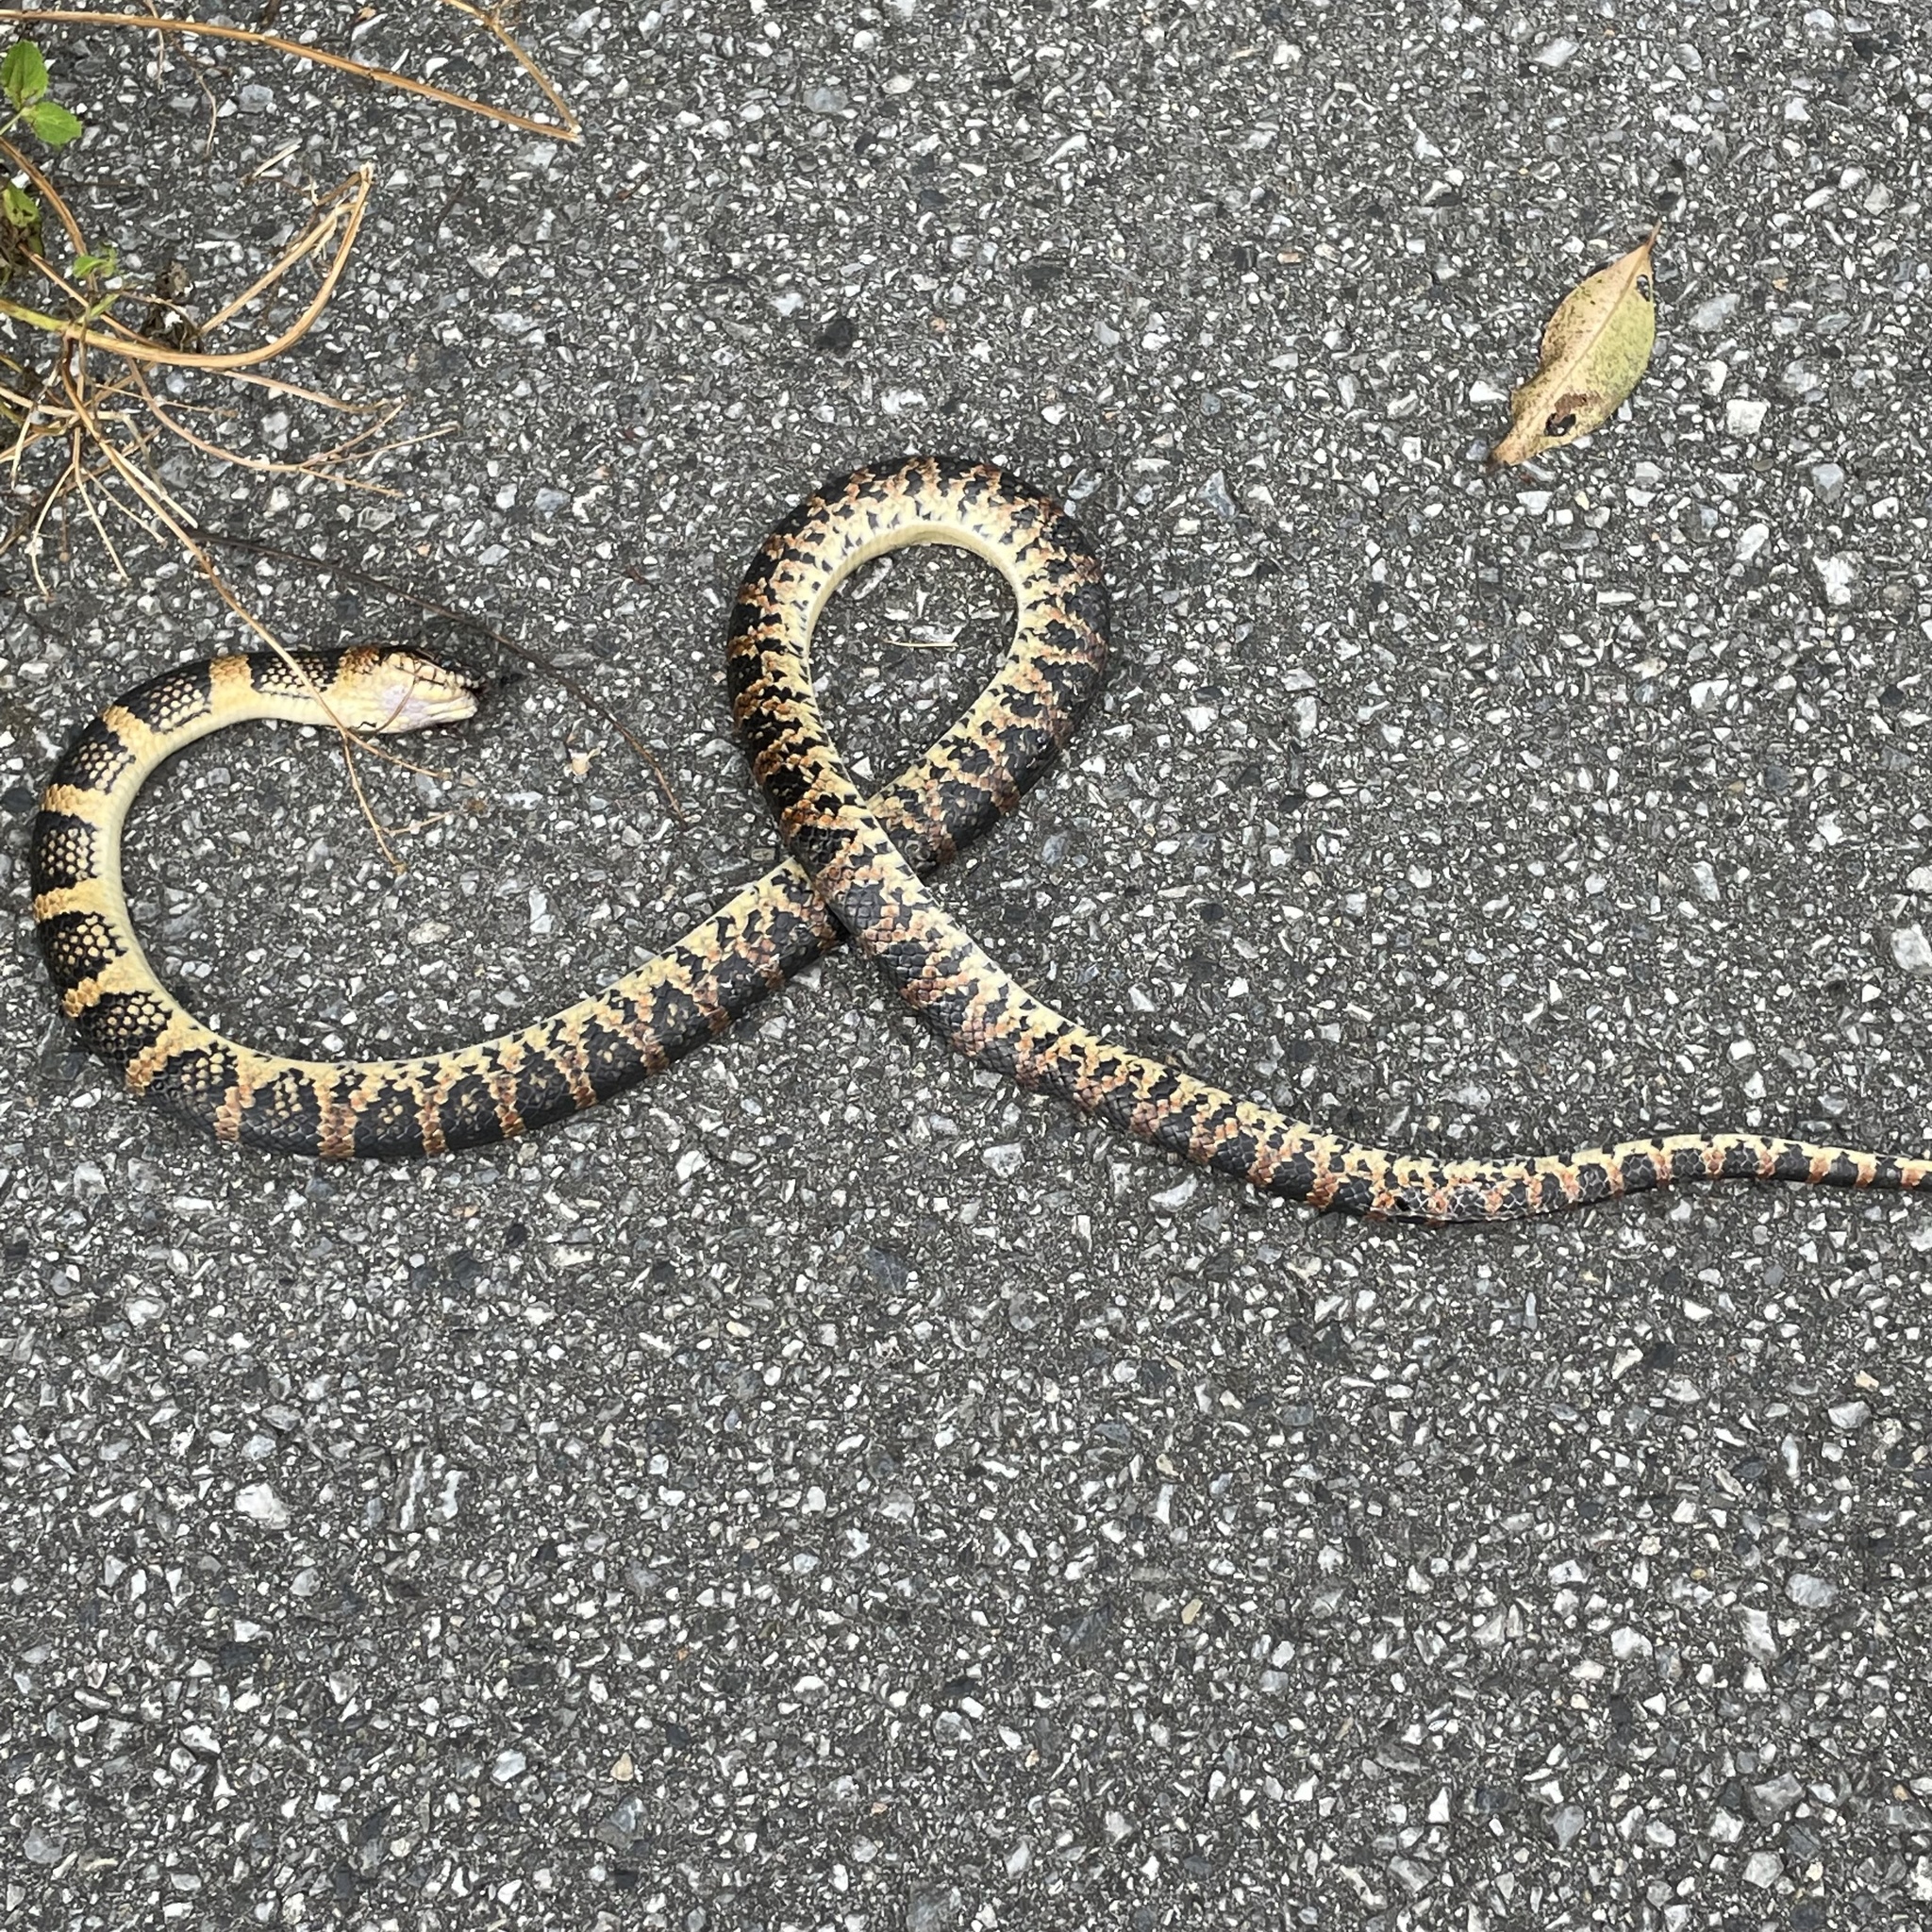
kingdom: Animalia
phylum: Chordata
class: Squamata
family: Colubridae
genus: Lycodon
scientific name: Lycodon semicarinatus
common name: Loo-choo big-tooth snake
